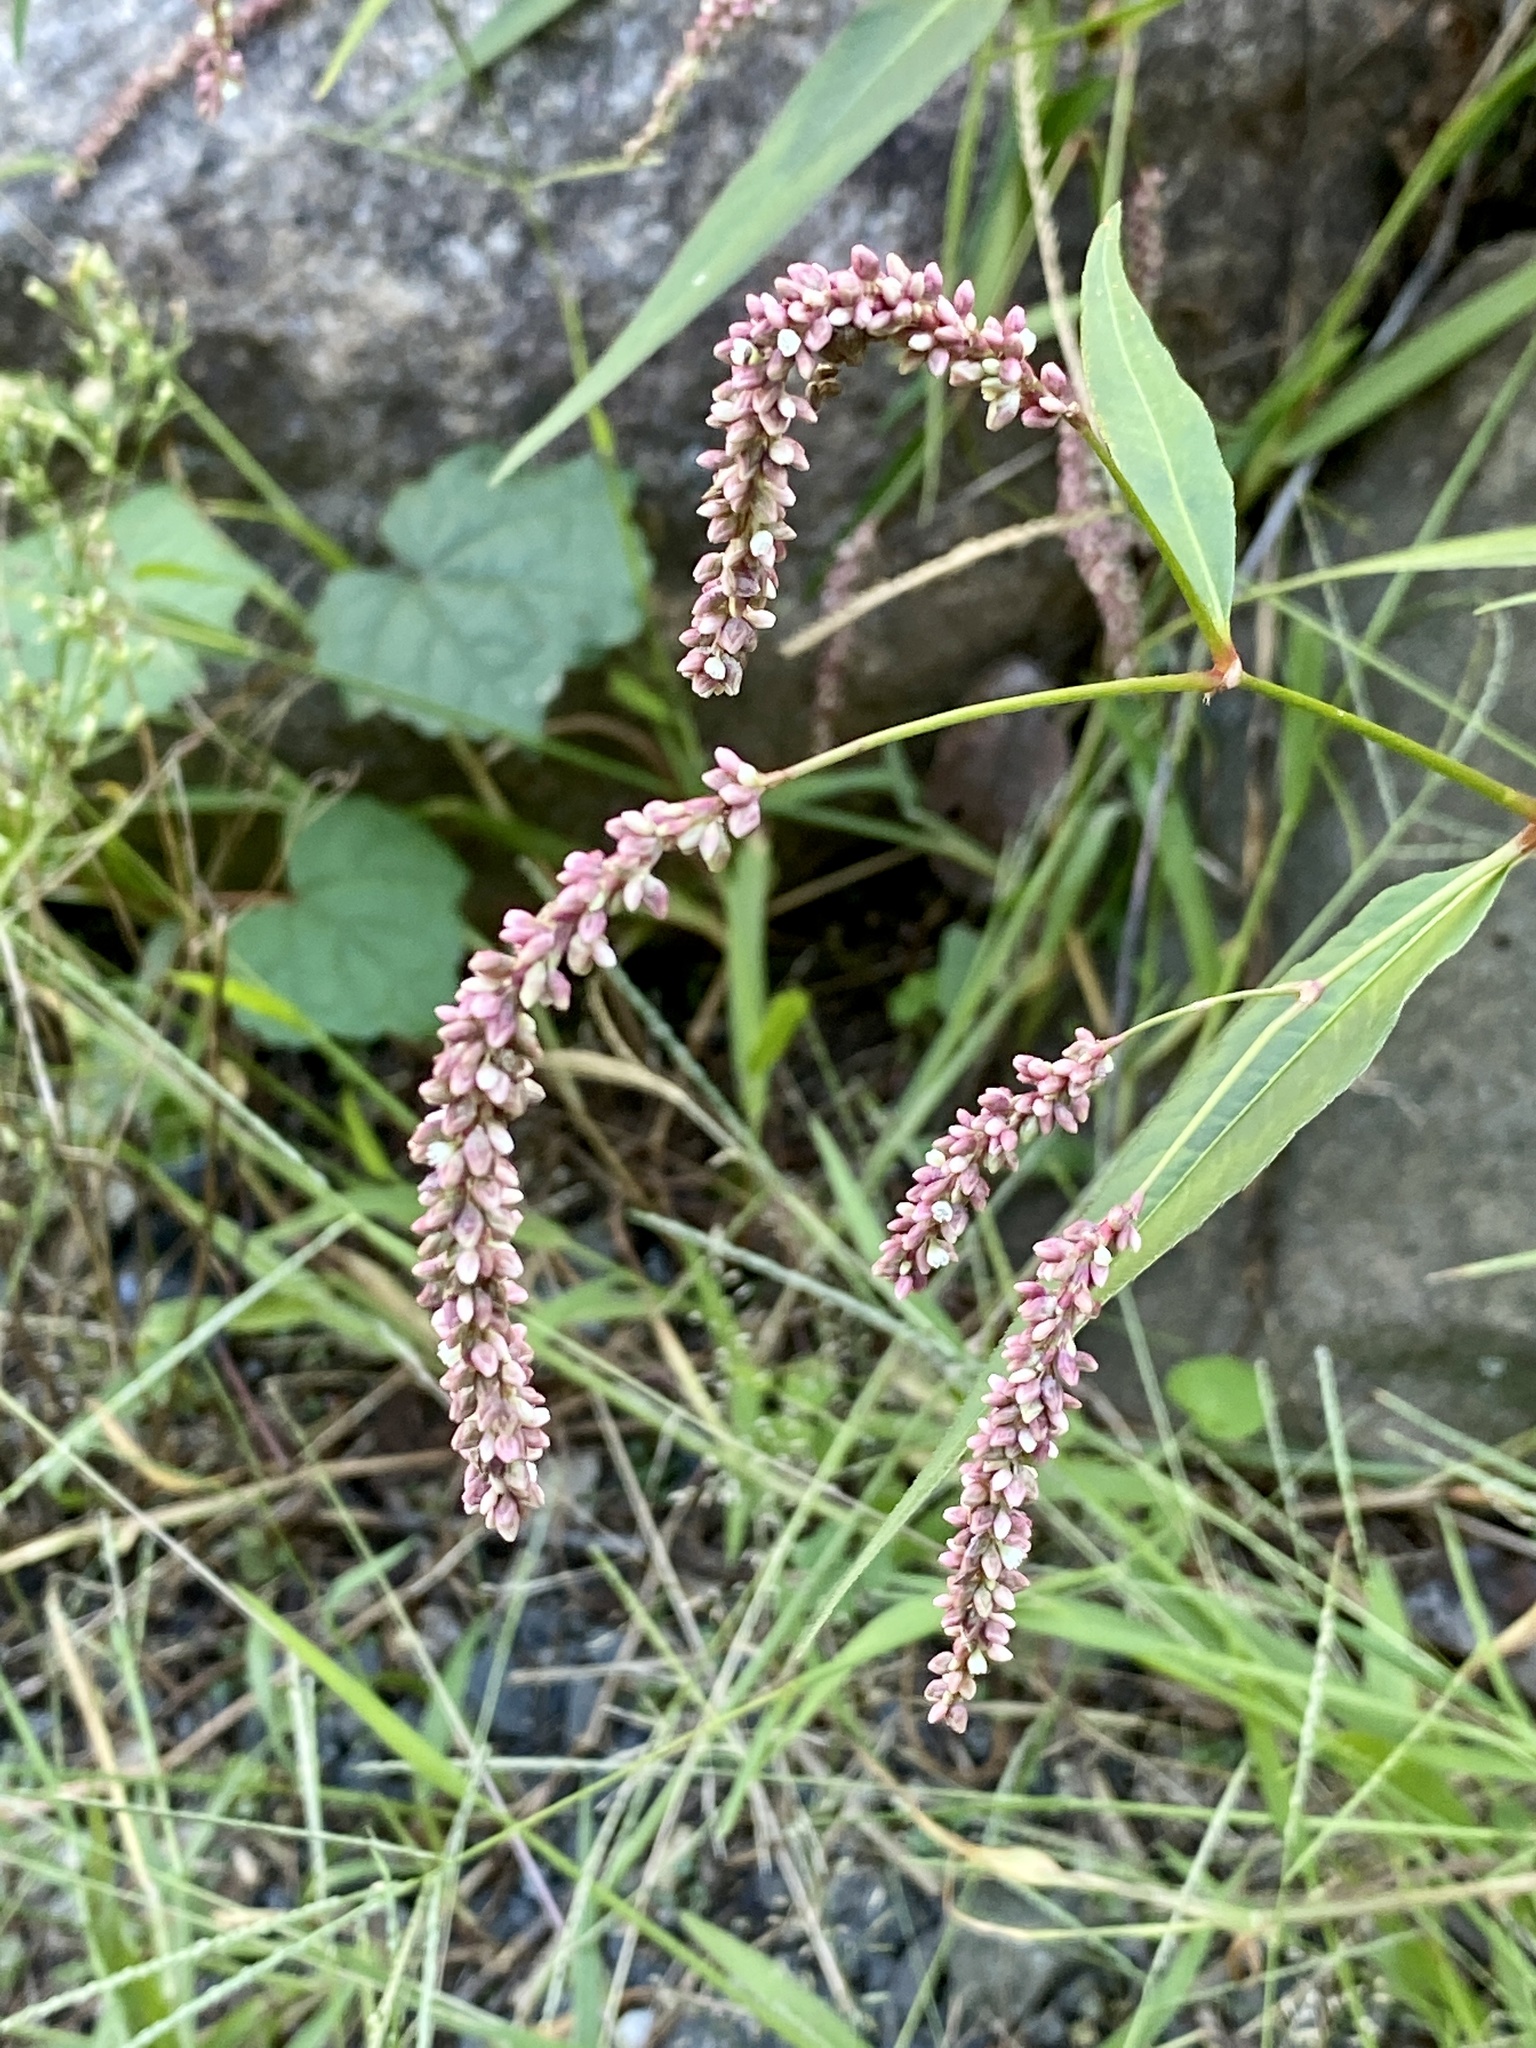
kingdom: Plantae
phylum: Tracheophyta
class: Magnoliopsida
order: Caryophyllales
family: Polygonaceae
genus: Persicaria
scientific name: Persicaria extremiorientalis
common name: Far-eastern smartweed
